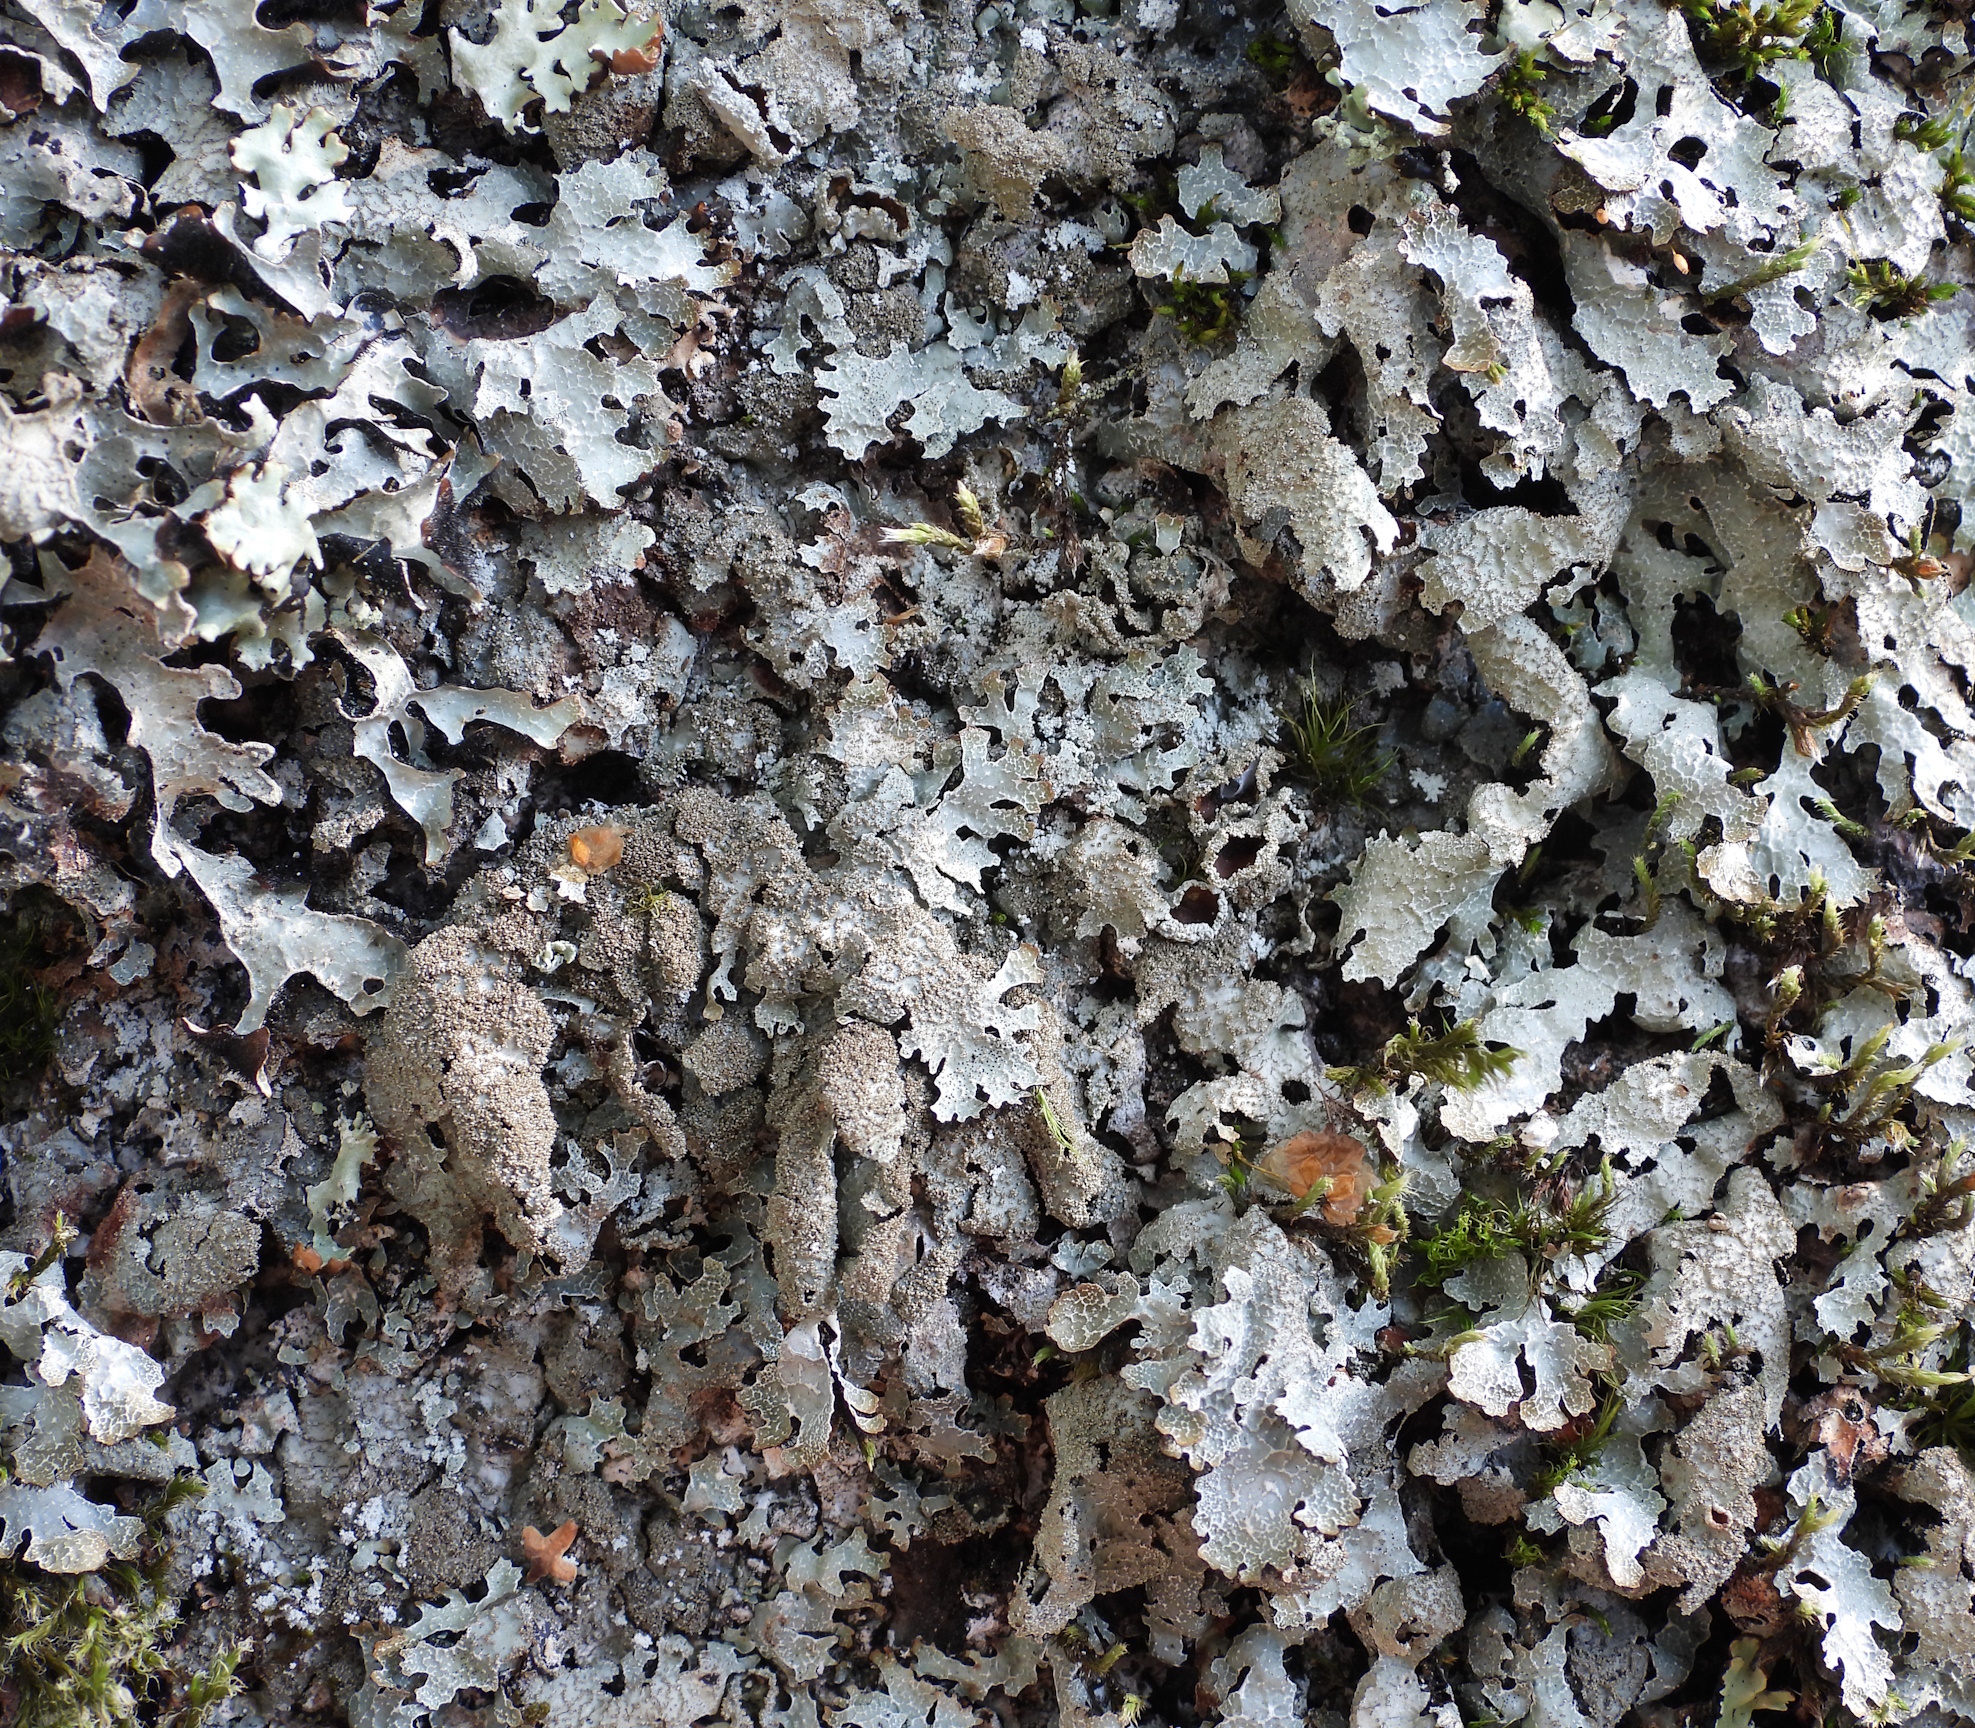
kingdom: Fungi
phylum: Ascomycota
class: Lecanoromycetes
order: Lecanorales
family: Parmeliaceae
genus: Parmelia
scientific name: Parmelia saxatilis
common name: Salted shield lichen
